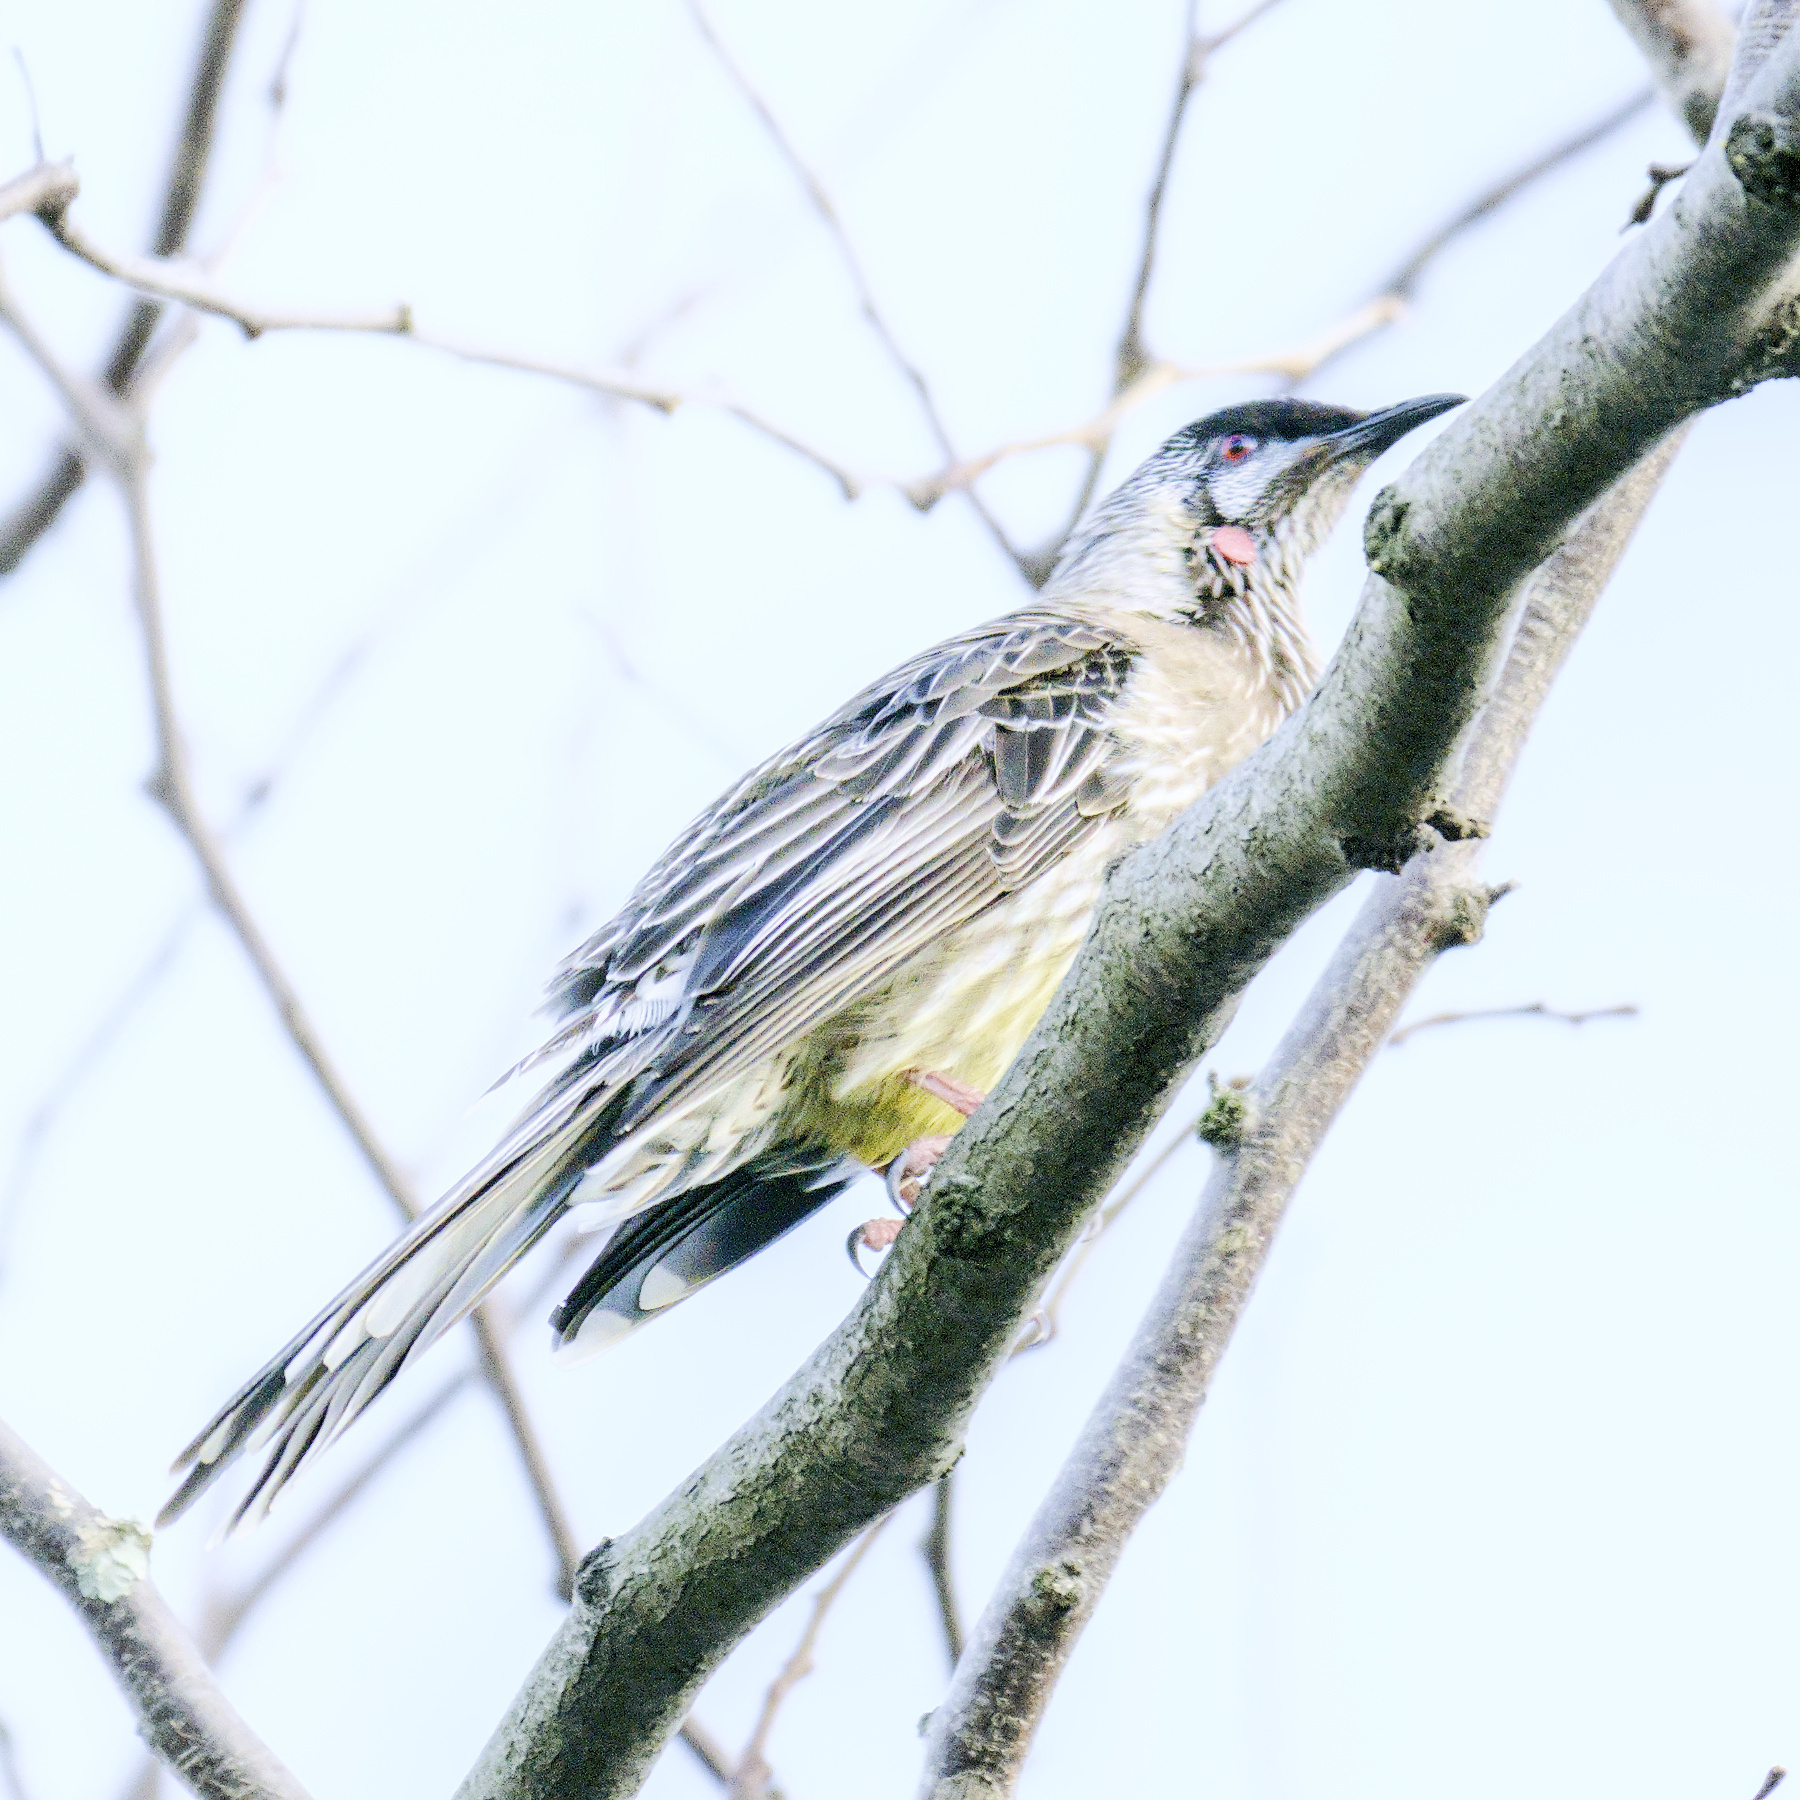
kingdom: Animalia
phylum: Chordata
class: Aves
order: Passeriformes
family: Meliphagidae
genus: Anthochaera
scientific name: Anthochaera carunculata
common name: Red wattlebird
